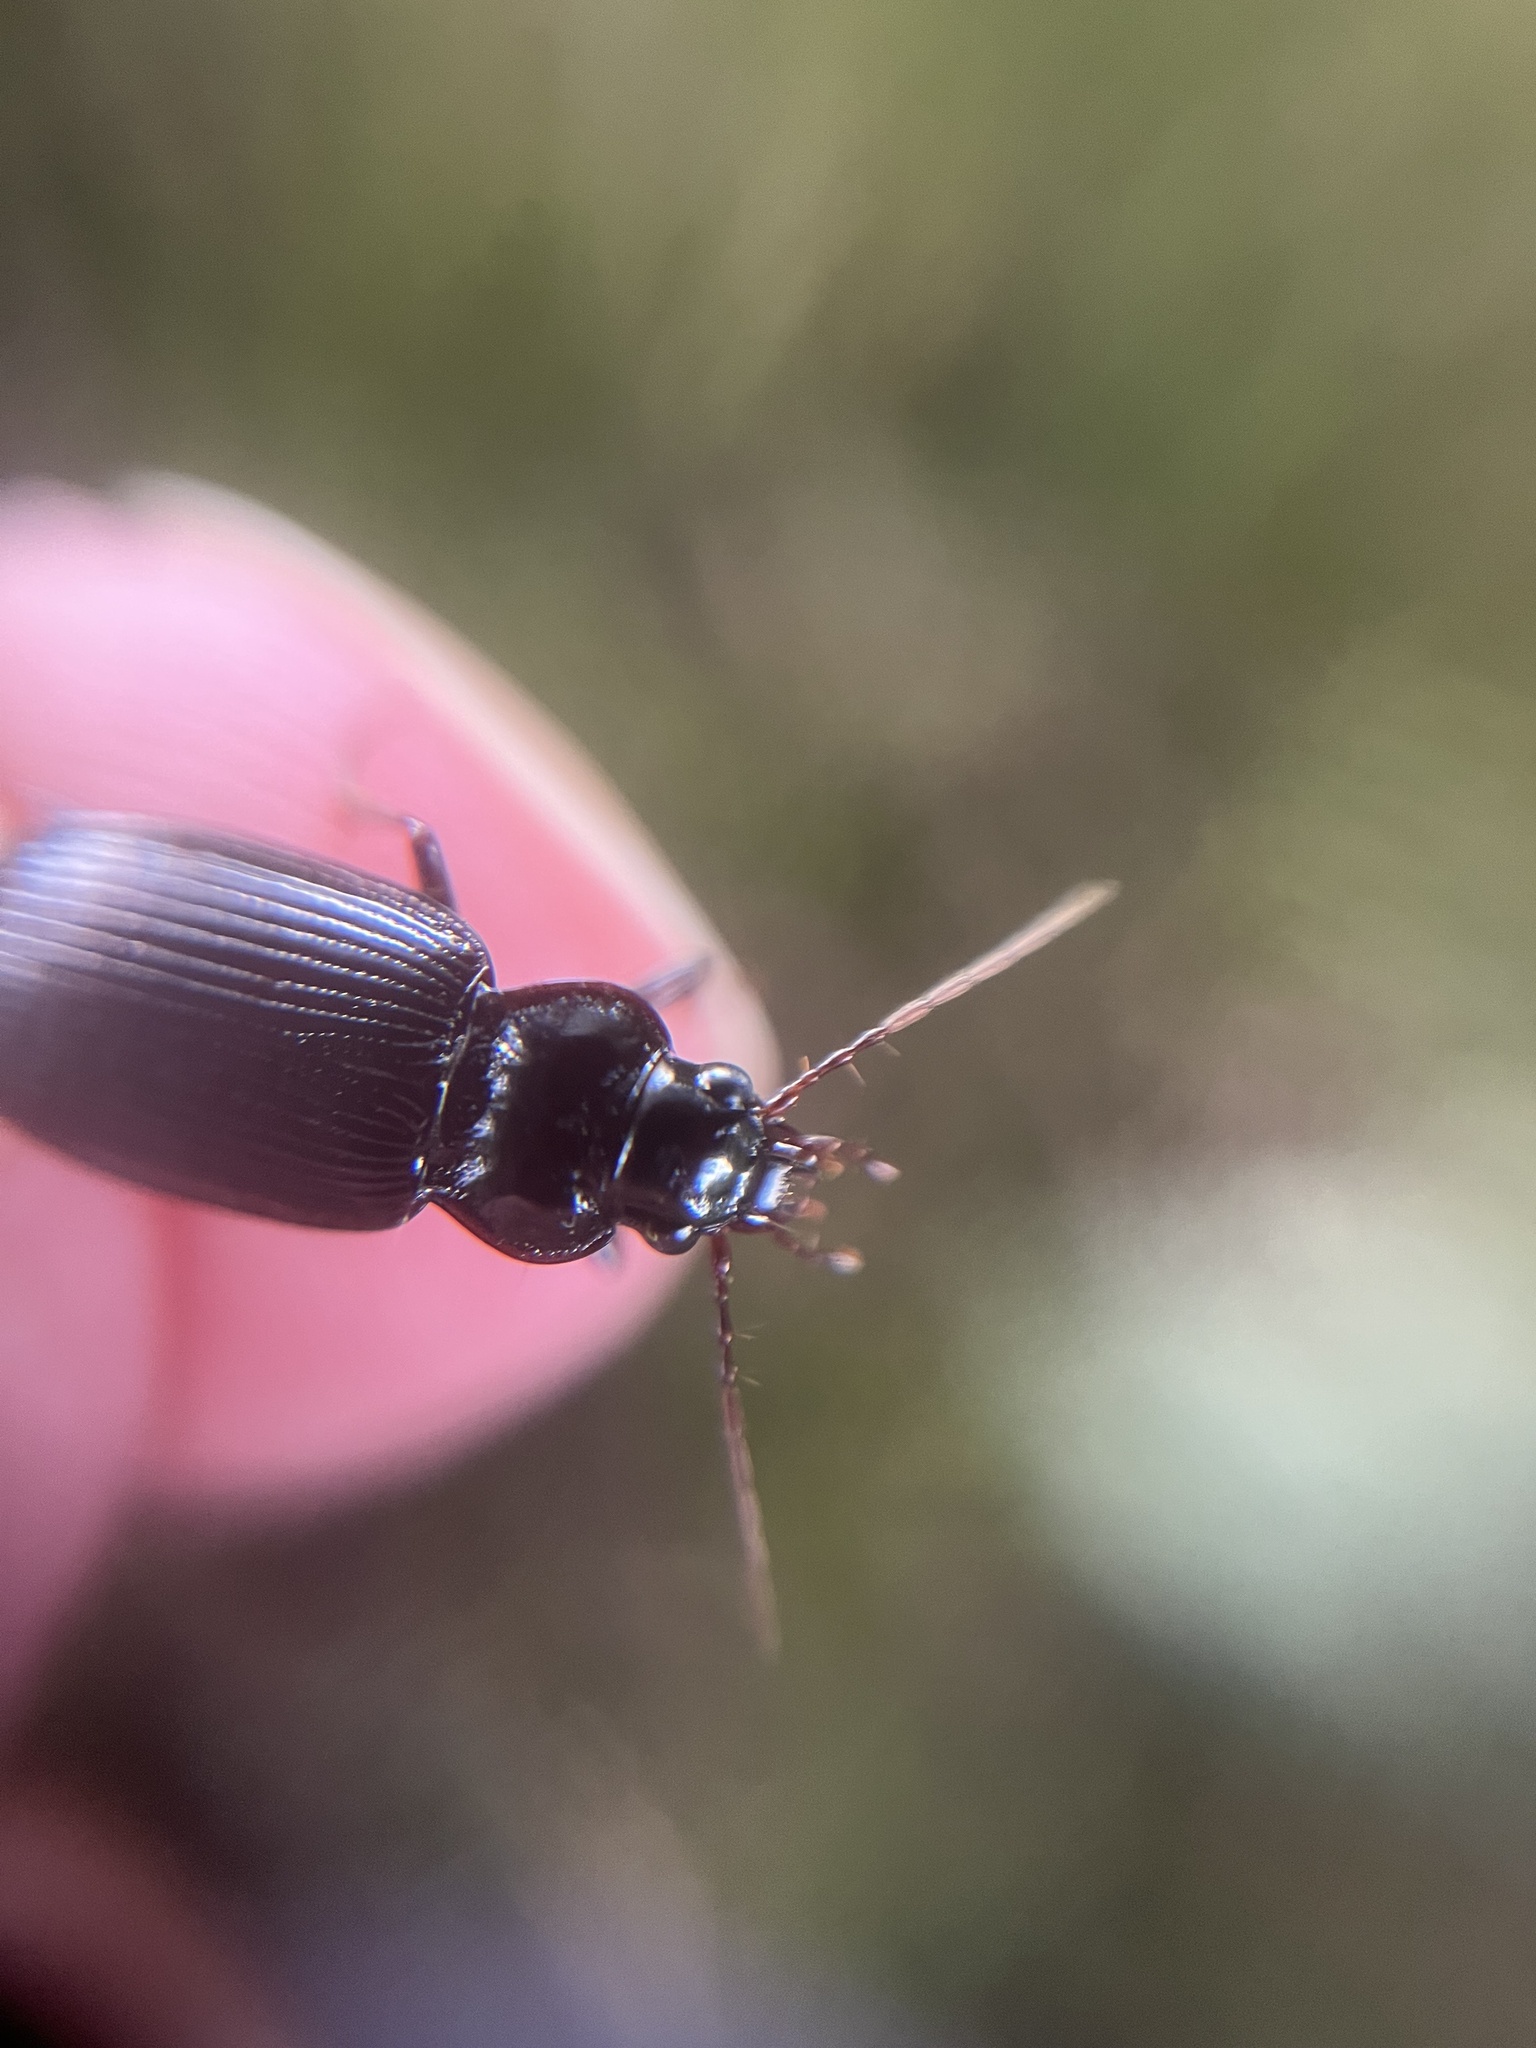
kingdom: Animalia
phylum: Arthropoda
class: Insecta
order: Coleoptera
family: Carabidae
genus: Nebria
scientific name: Nebria brevicollis
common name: Short-necked gazelle beetle
